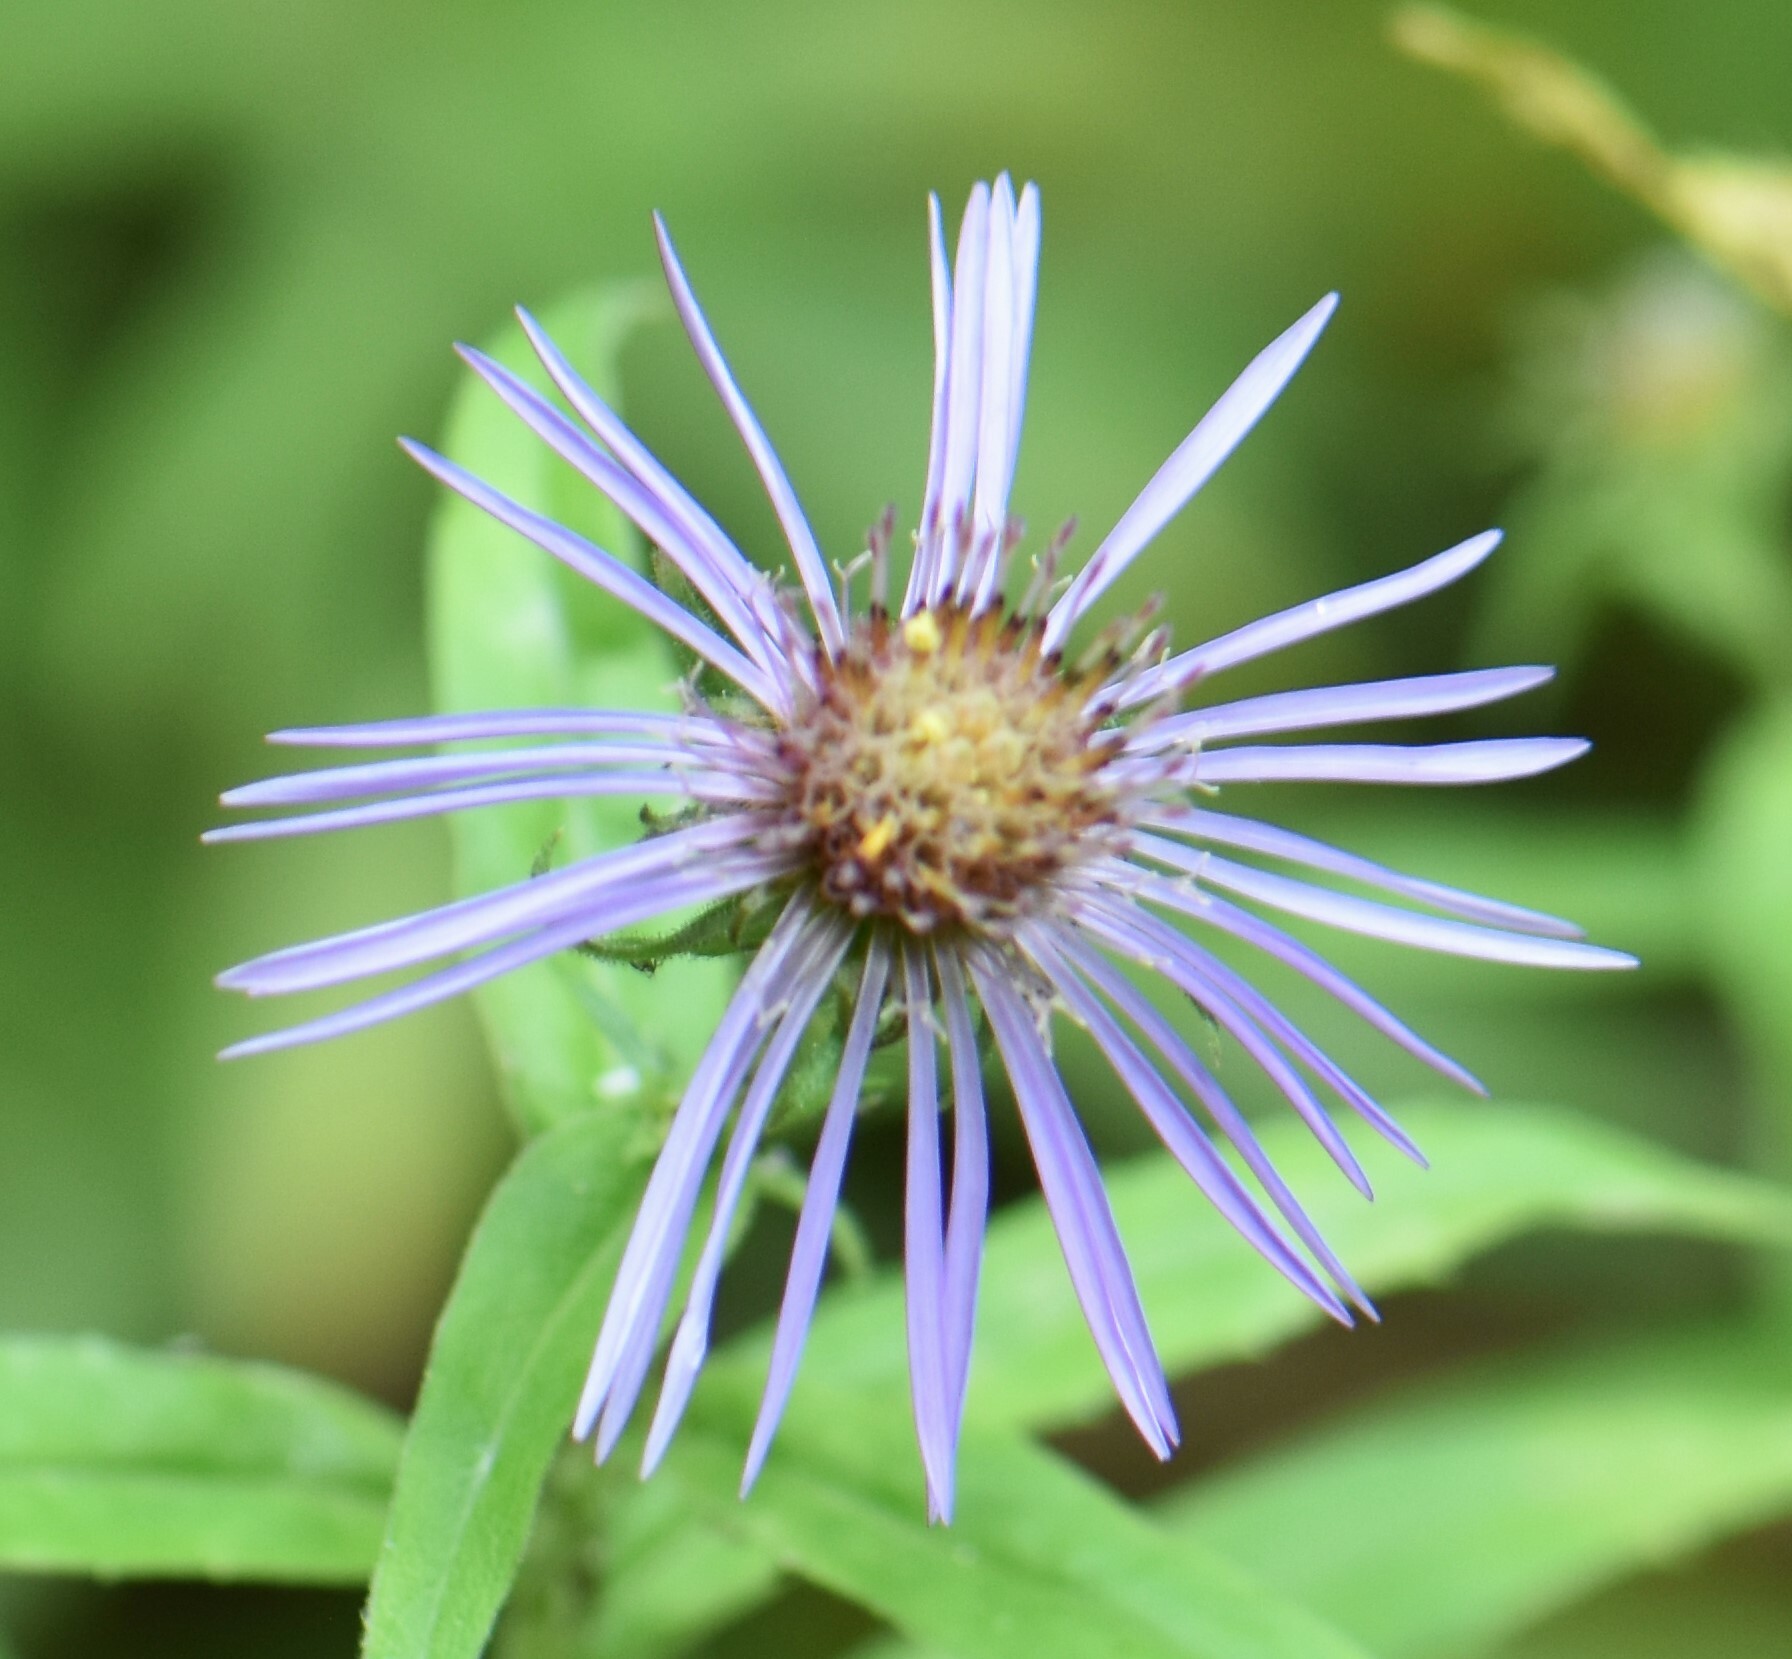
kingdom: Plantae
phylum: Tracheophyta
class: Magnoliopsida
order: Asterales
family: Asteraceae
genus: Canadanthus
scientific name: Canadanthus modestus
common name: Great northern aster
